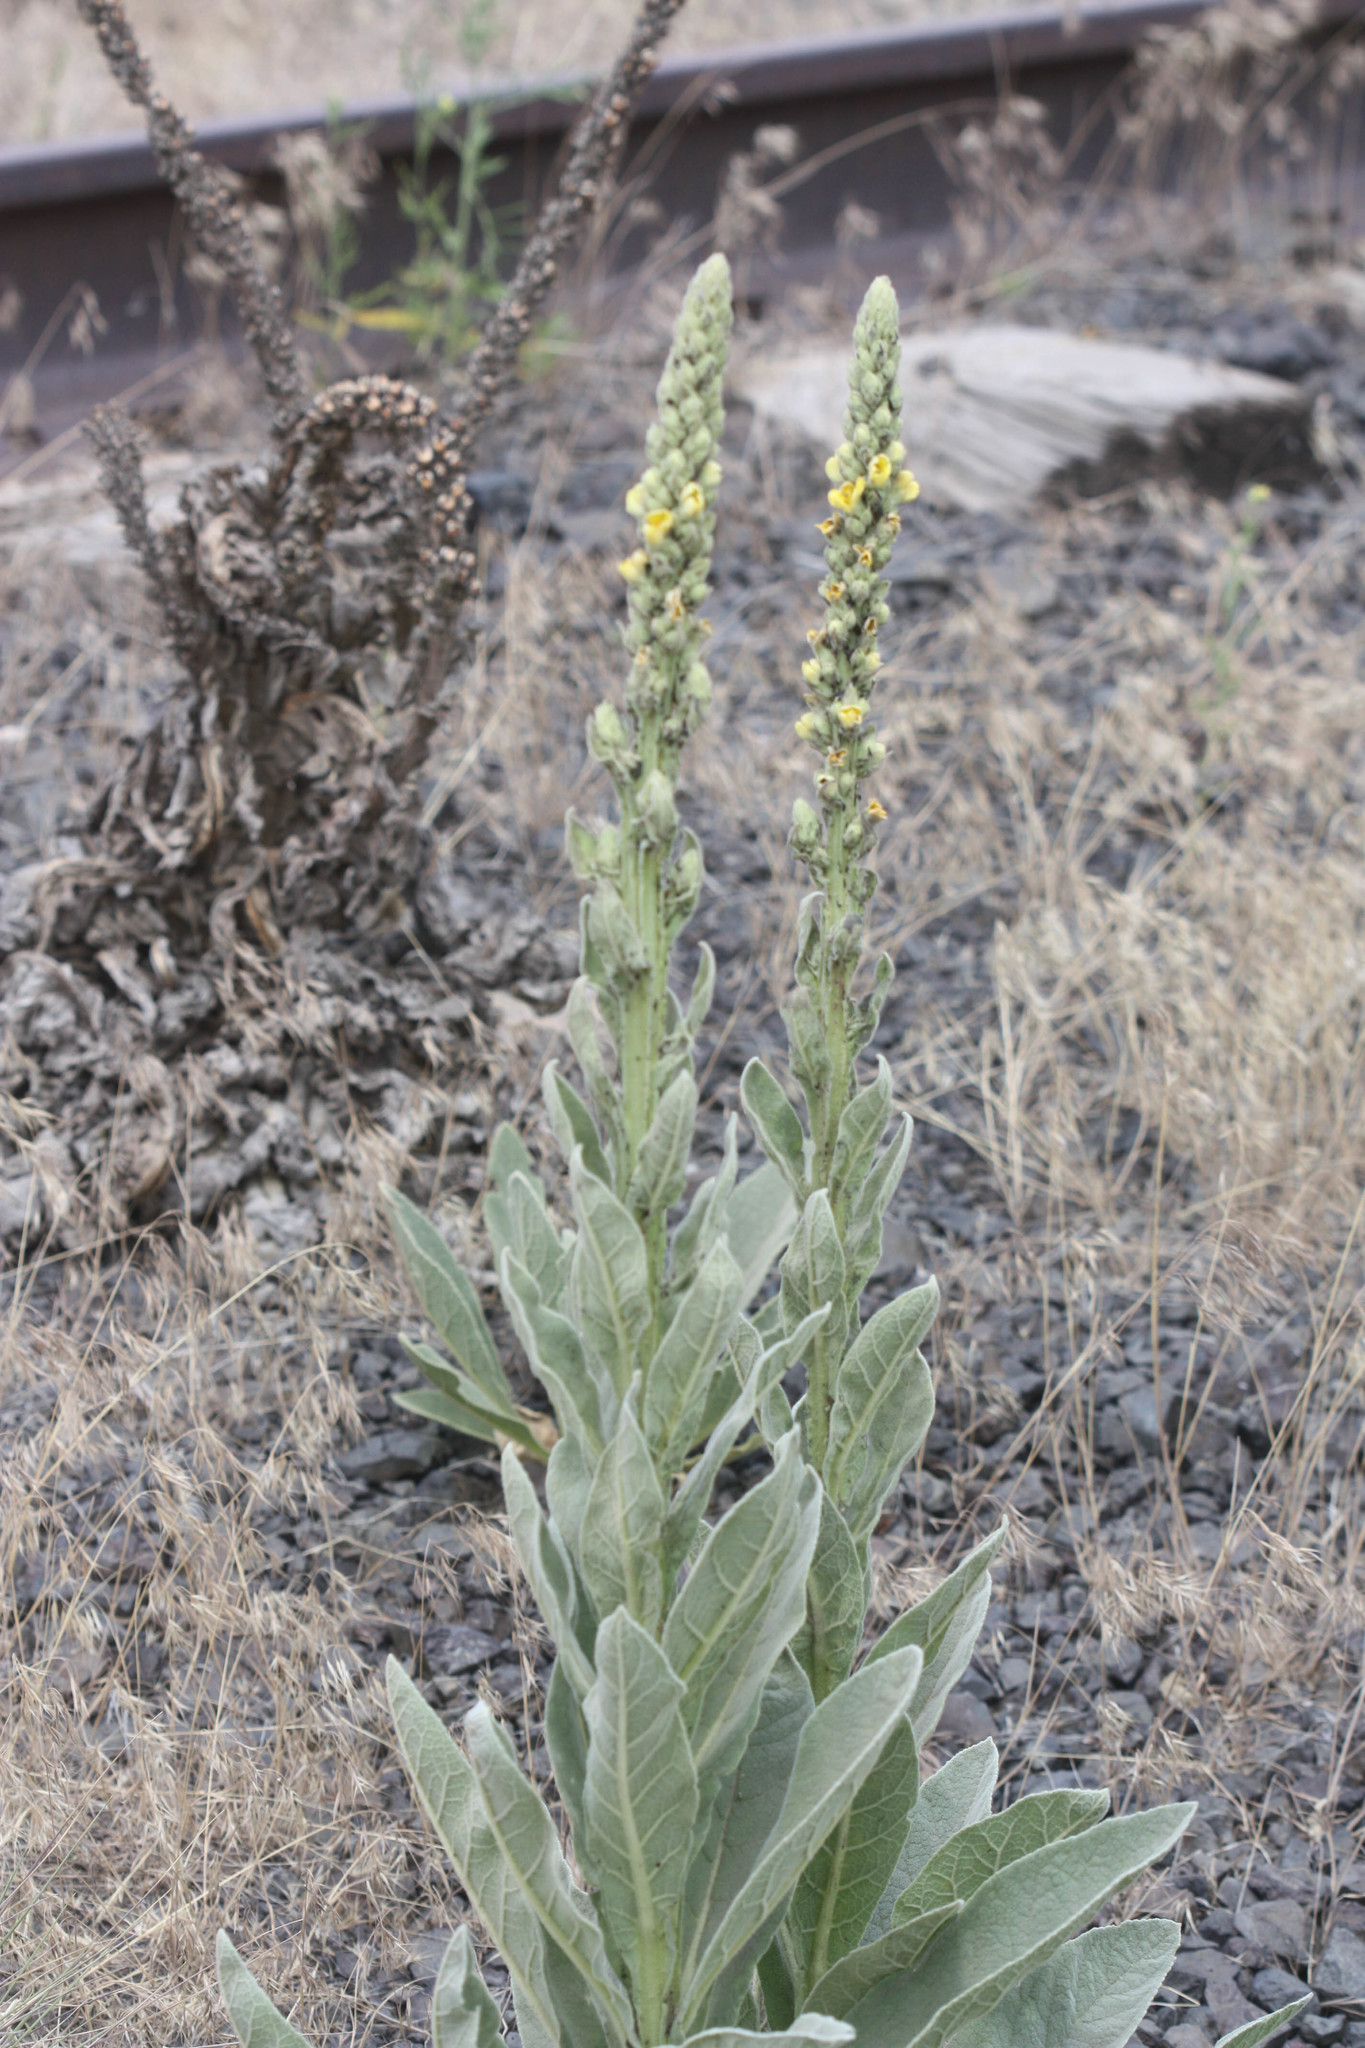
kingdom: Plantae
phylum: Tracheophyta
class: Magnoliopsida
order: Lamiales
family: Scrophulariaceae
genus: Verbascum
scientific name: Verbascum thapsus
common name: Common mullein
